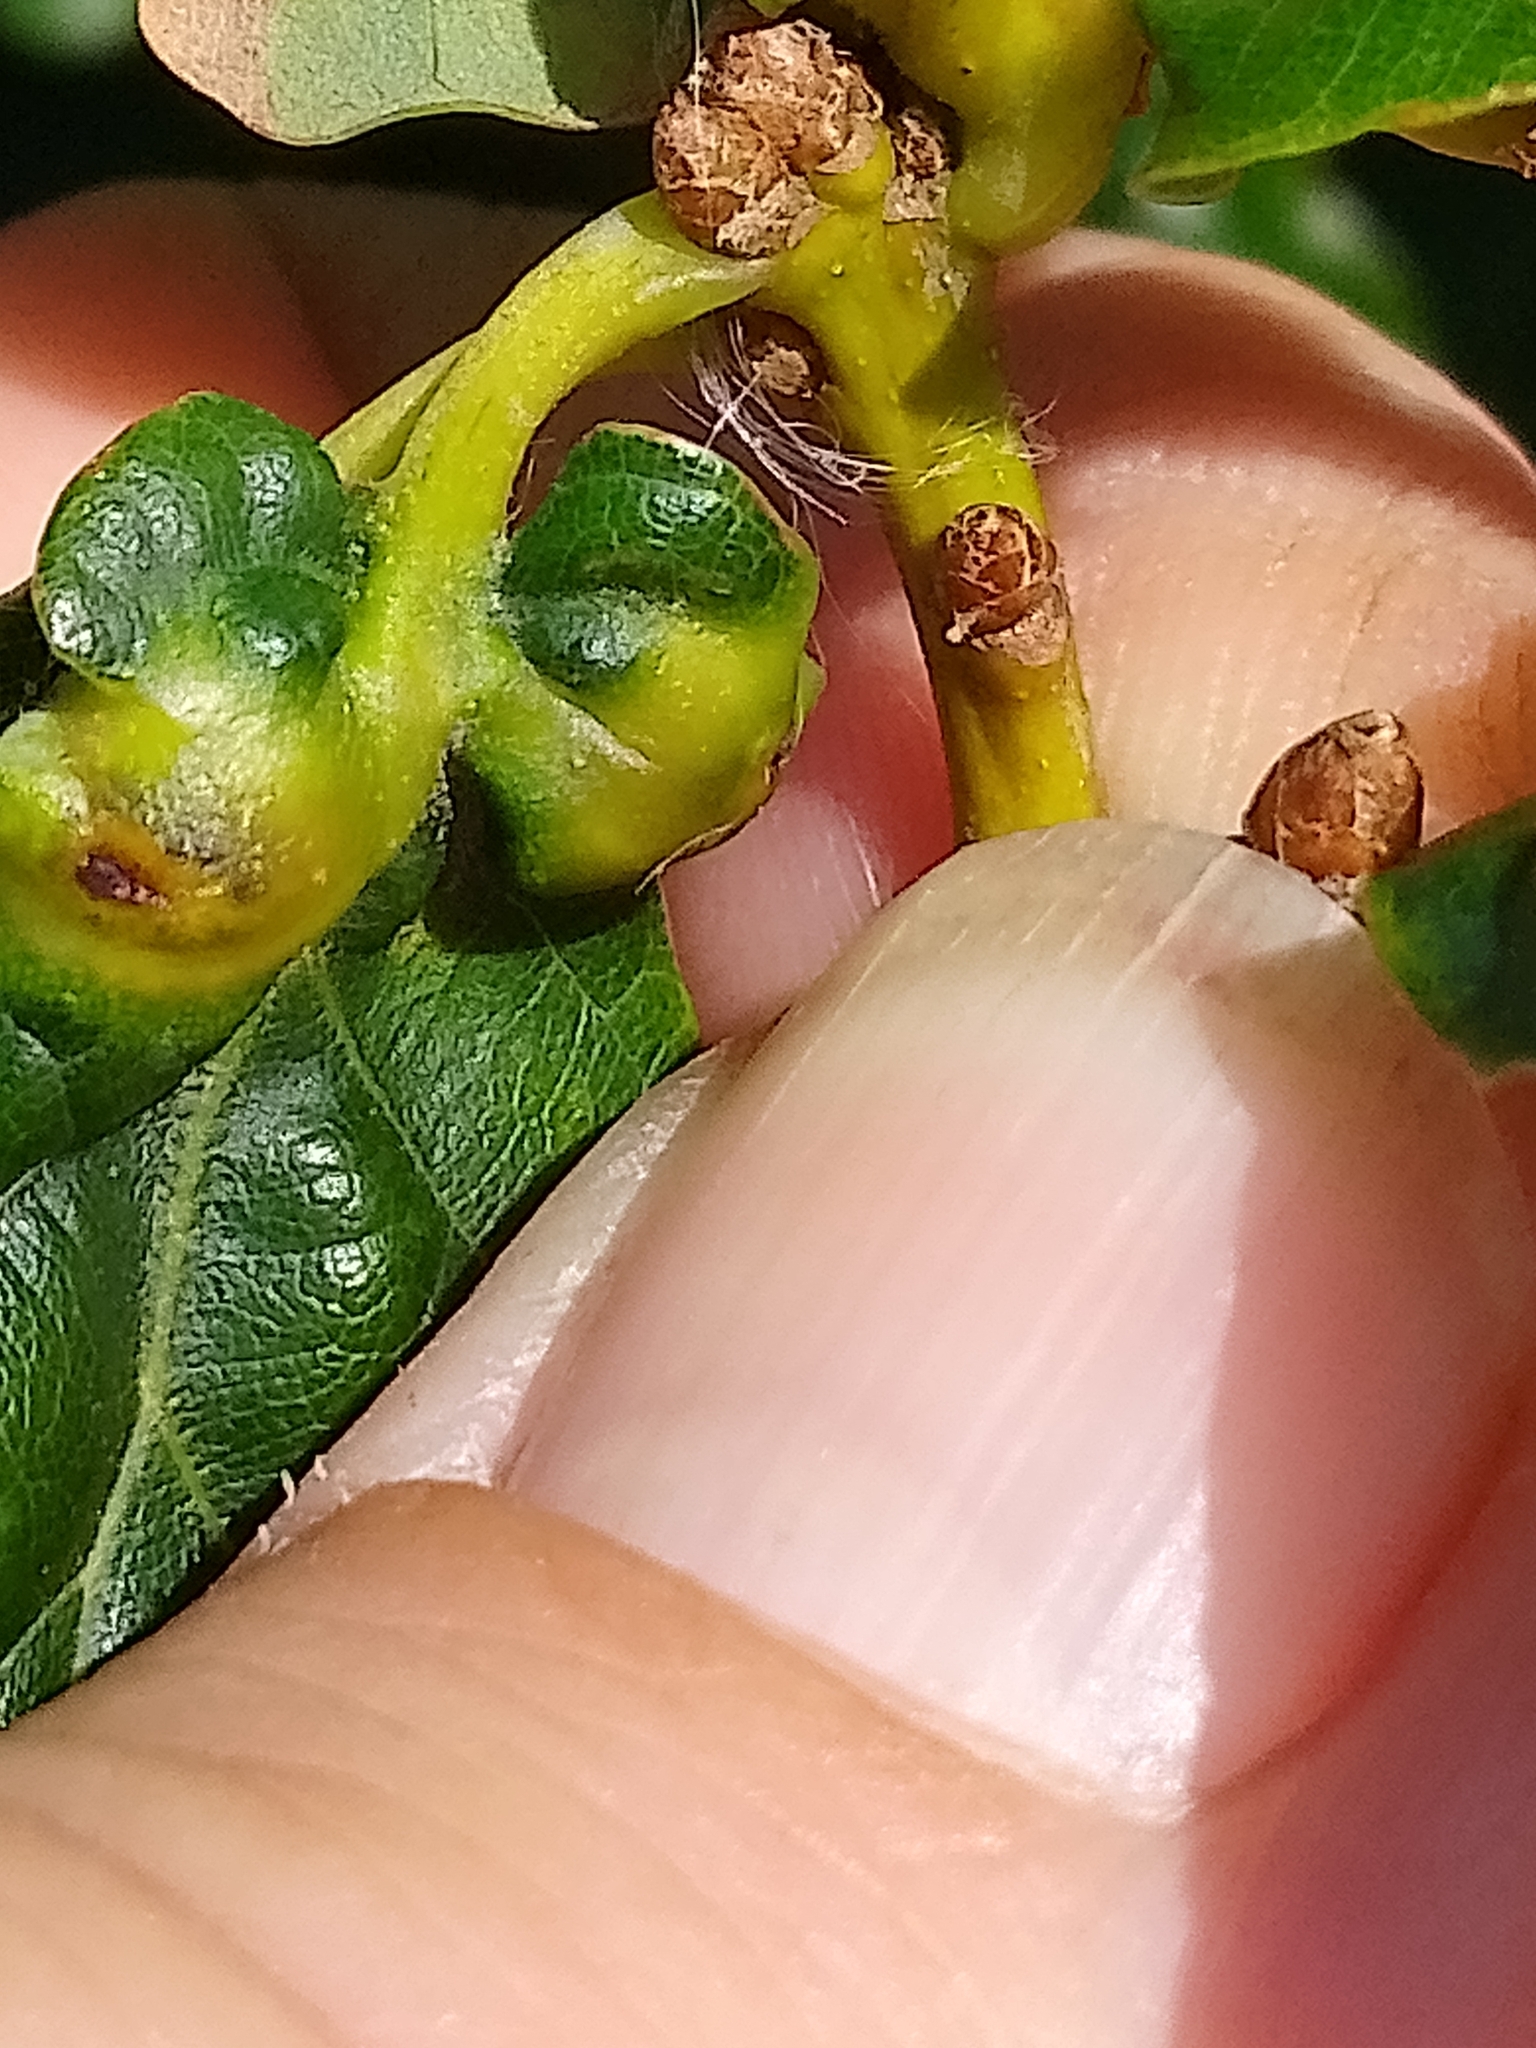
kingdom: Animalia
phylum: Arthropoda
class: Insecta
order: Hymenoptera
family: Cynipidae
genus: Andricus
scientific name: Andricus curvator
